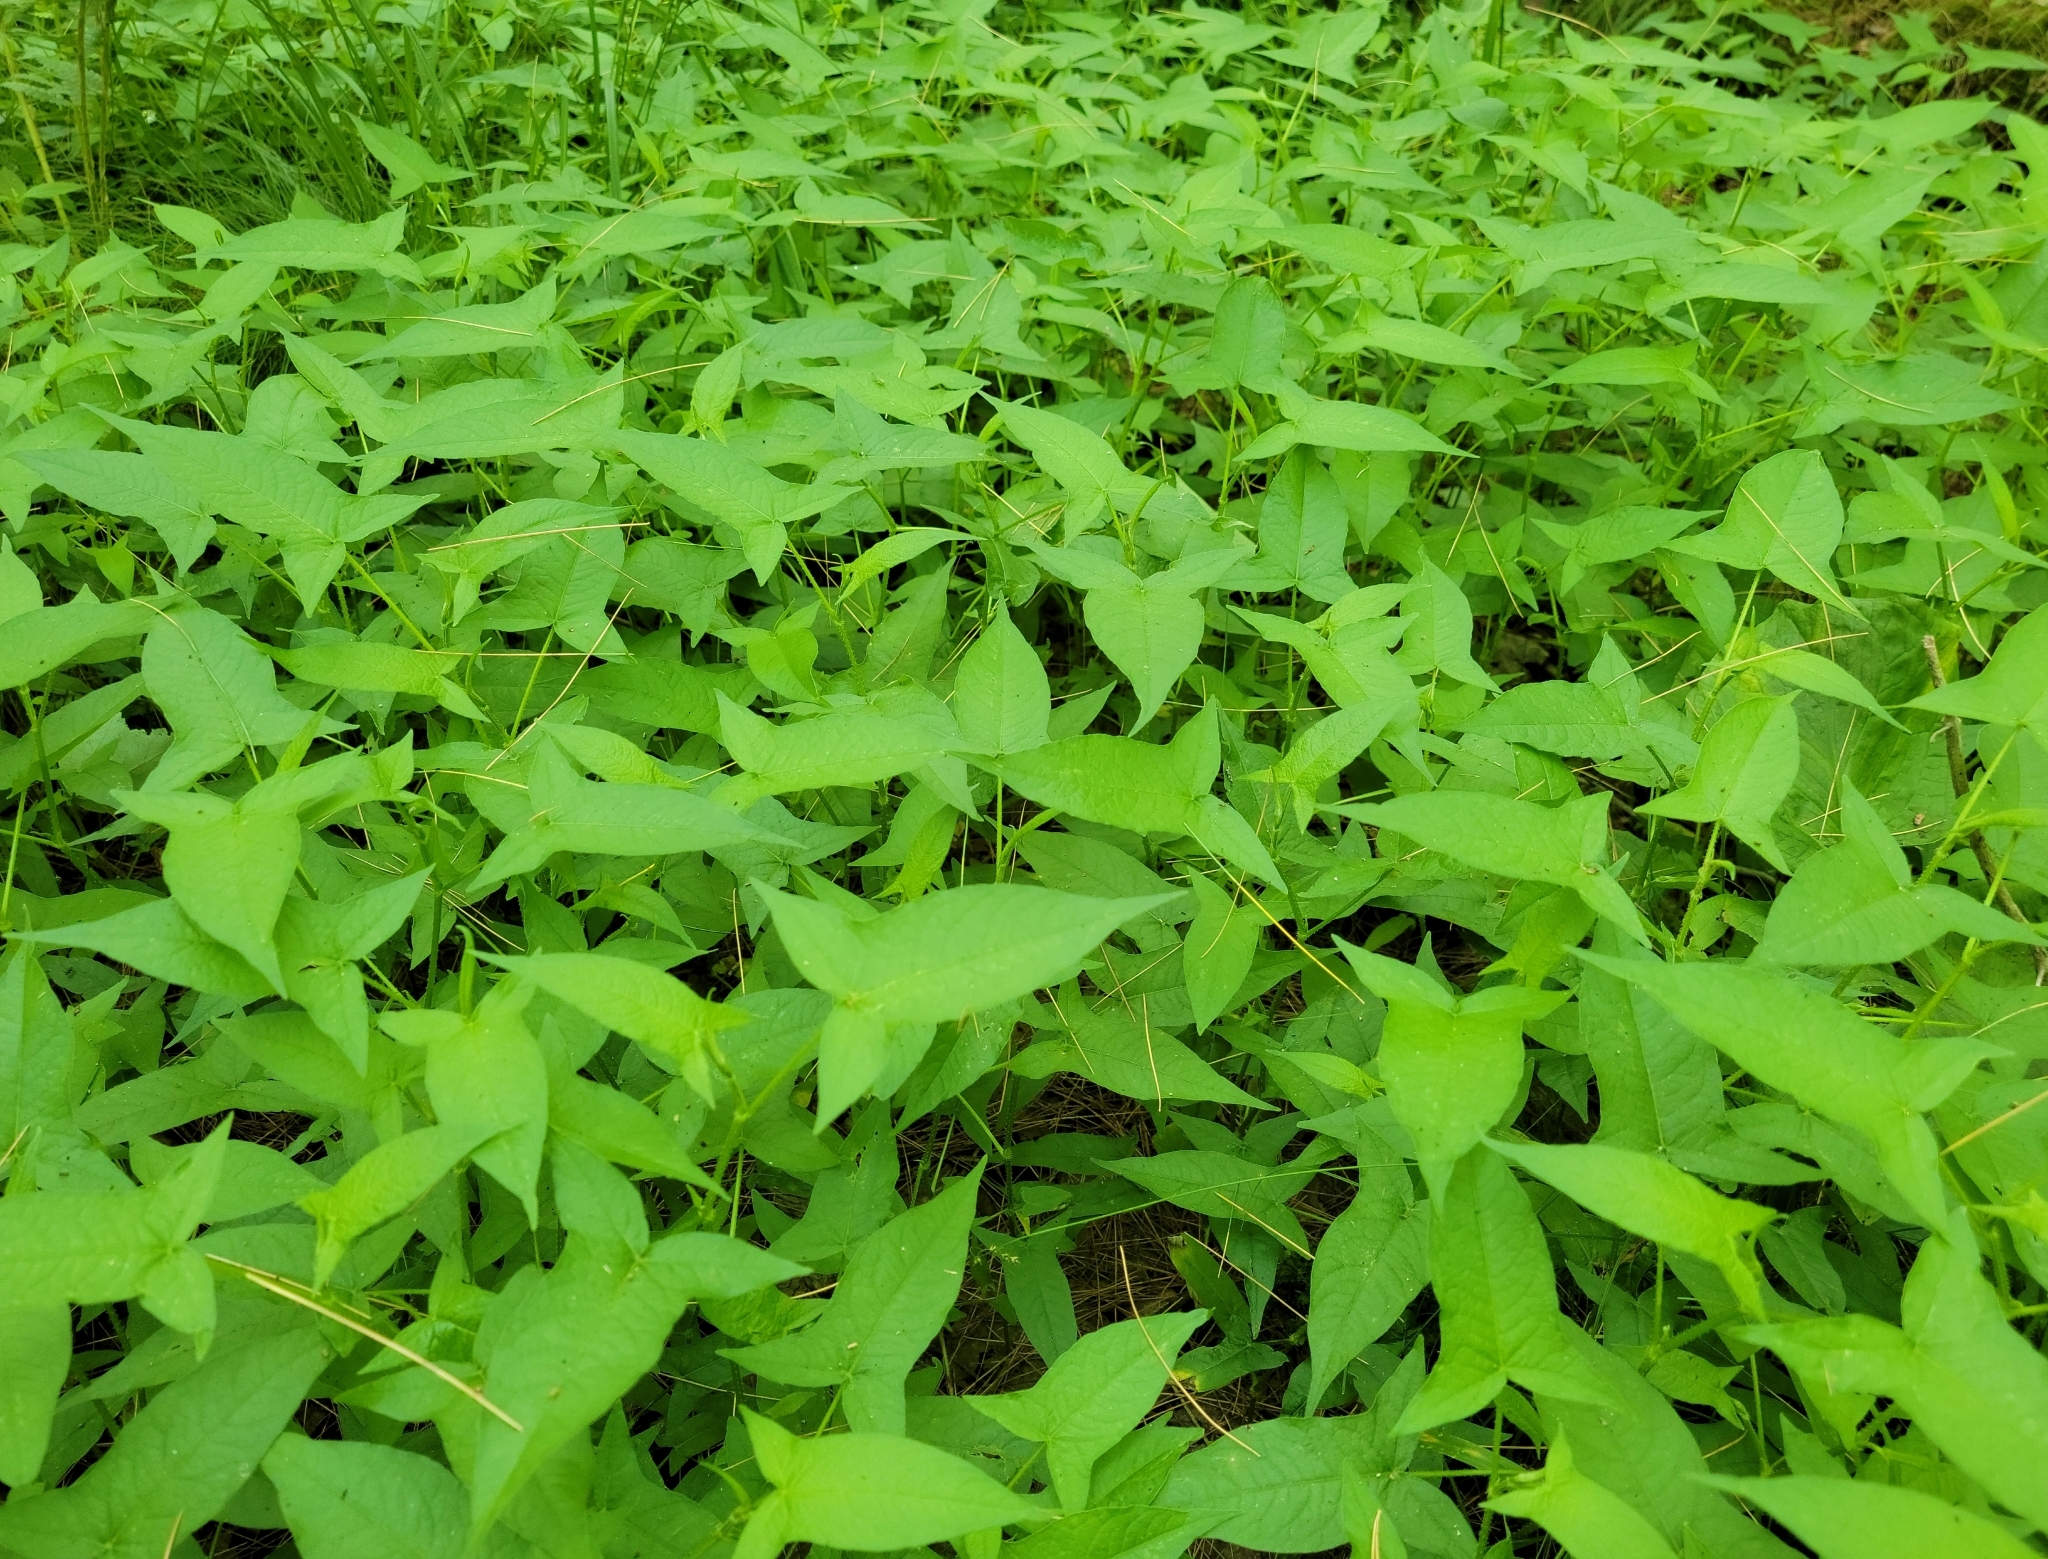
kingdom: Plantae
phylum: Tracheophyta
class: Magnoliopsida
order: Caryophyllales
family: Polygonaceae
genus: Persicaria
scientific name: Persicaria arifolia
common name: Halberd-leaved tear-thumb
